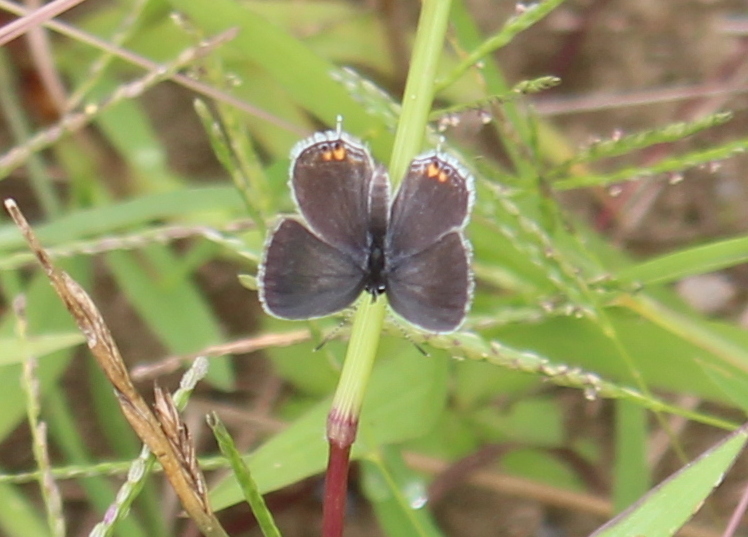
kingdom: Animalia
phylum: Arthropoda
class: Insecta
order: Lepidoptera
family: Lycaenidae
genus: Elkalyce
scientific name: Elkalyce comyntas
